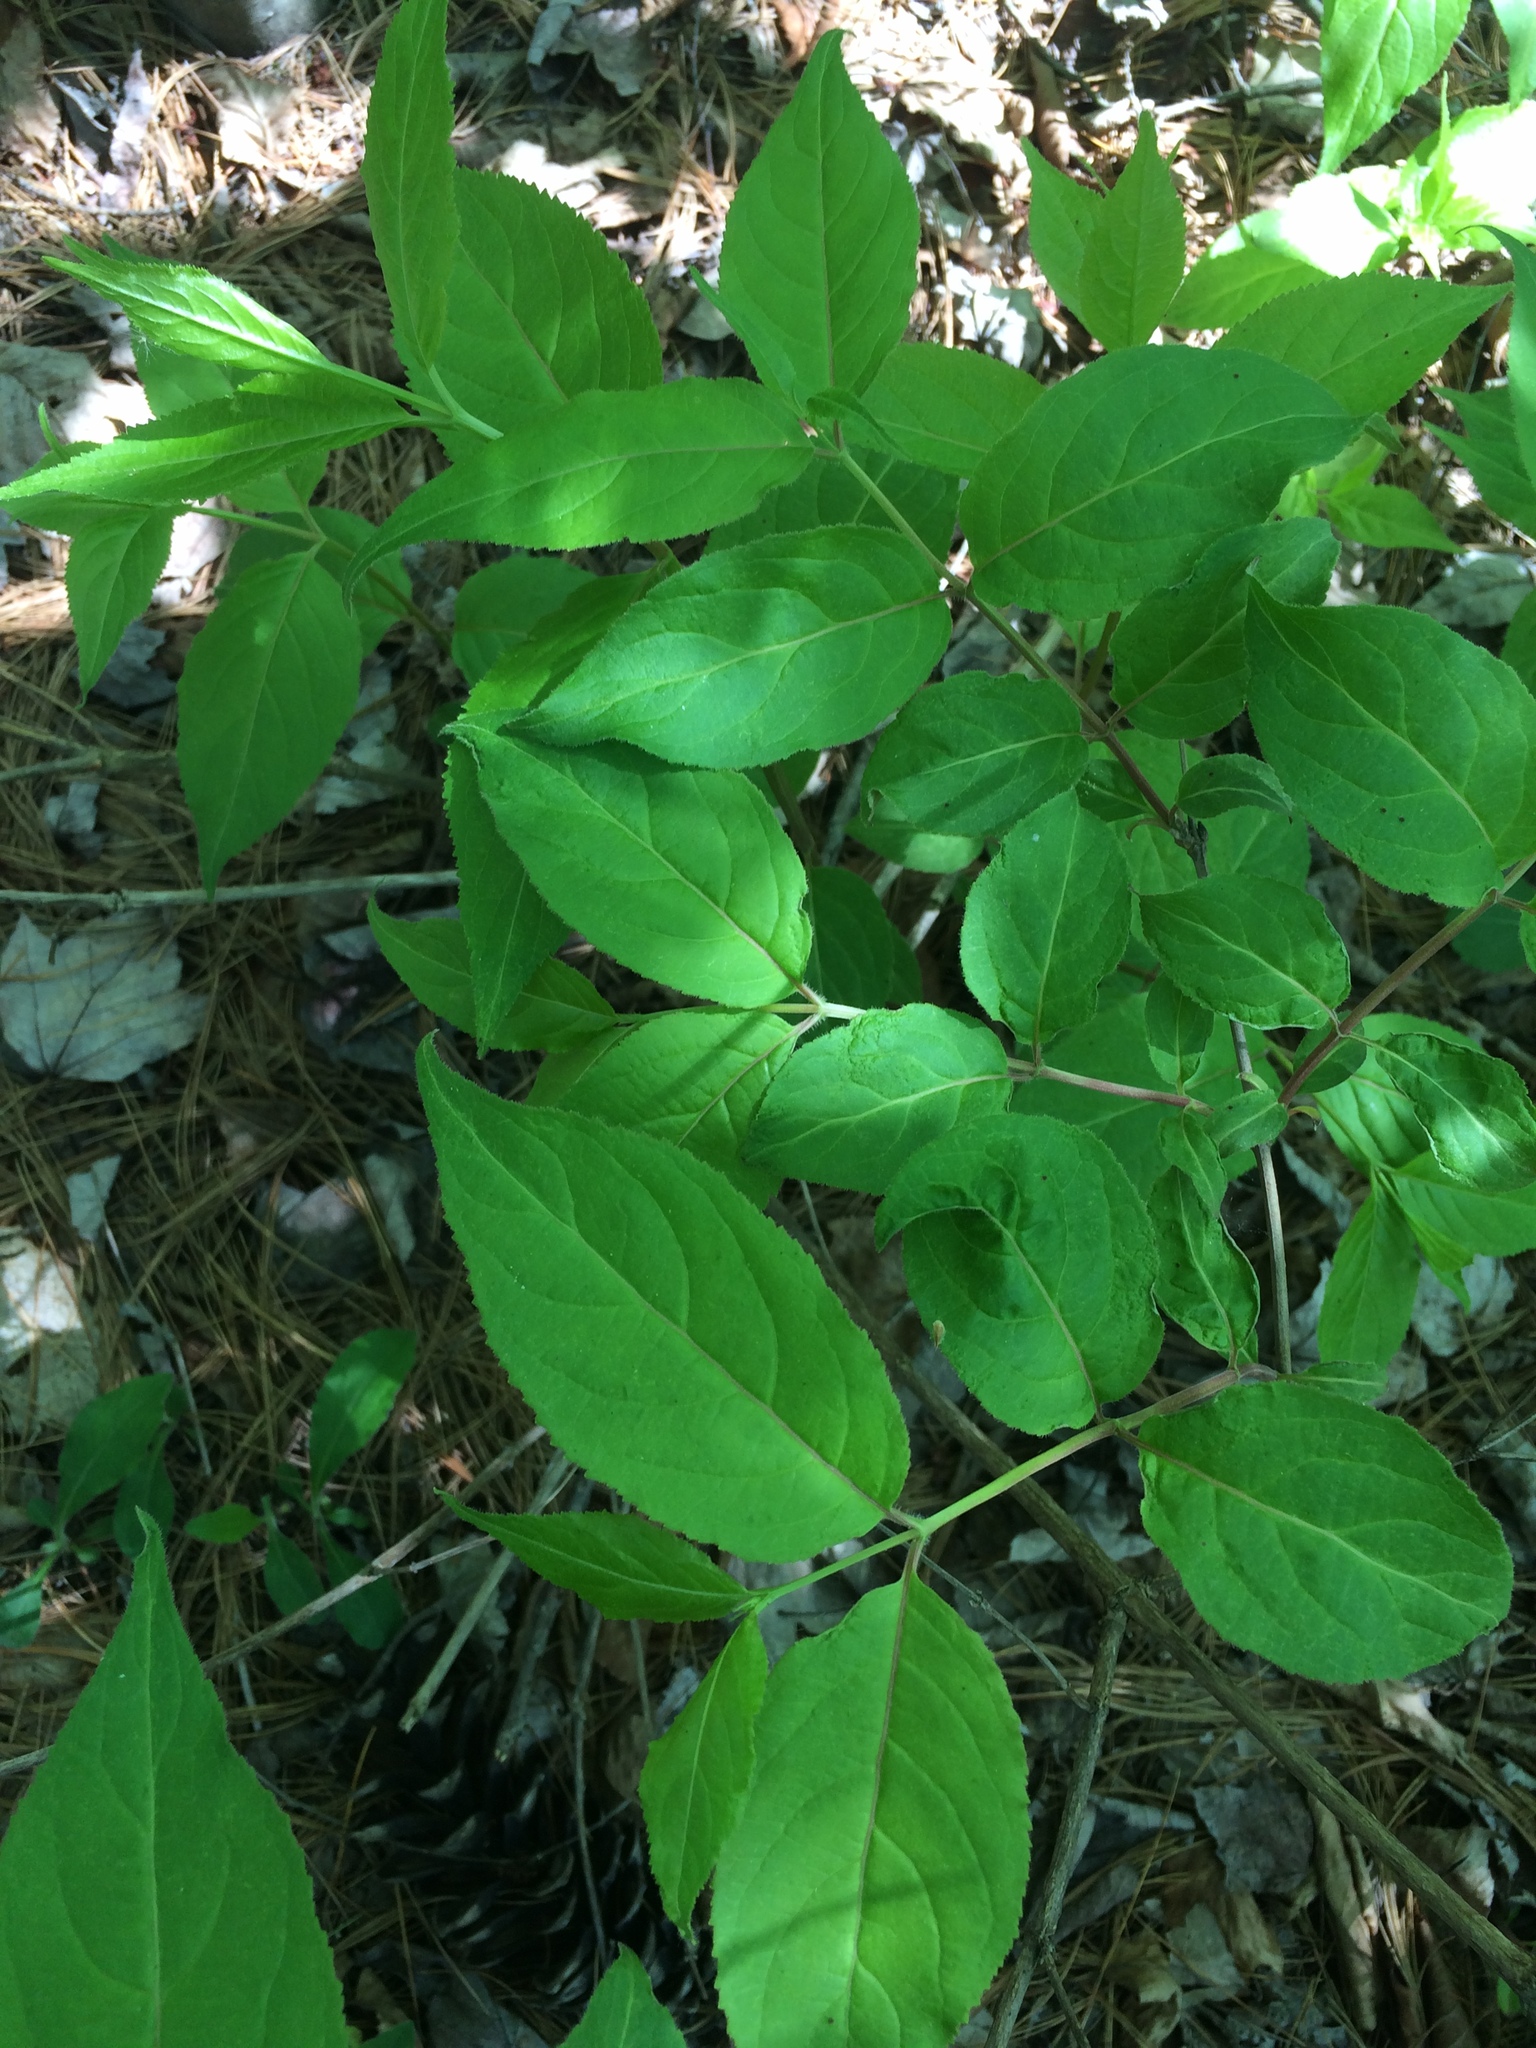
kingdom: Plantae
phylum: Tracheophyta
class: Magnoliopsida
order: Dipsacales
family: Caprifoliaceae
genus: Diervilla
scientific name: Diervilla lonicera
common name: Bush-honeysuckle
